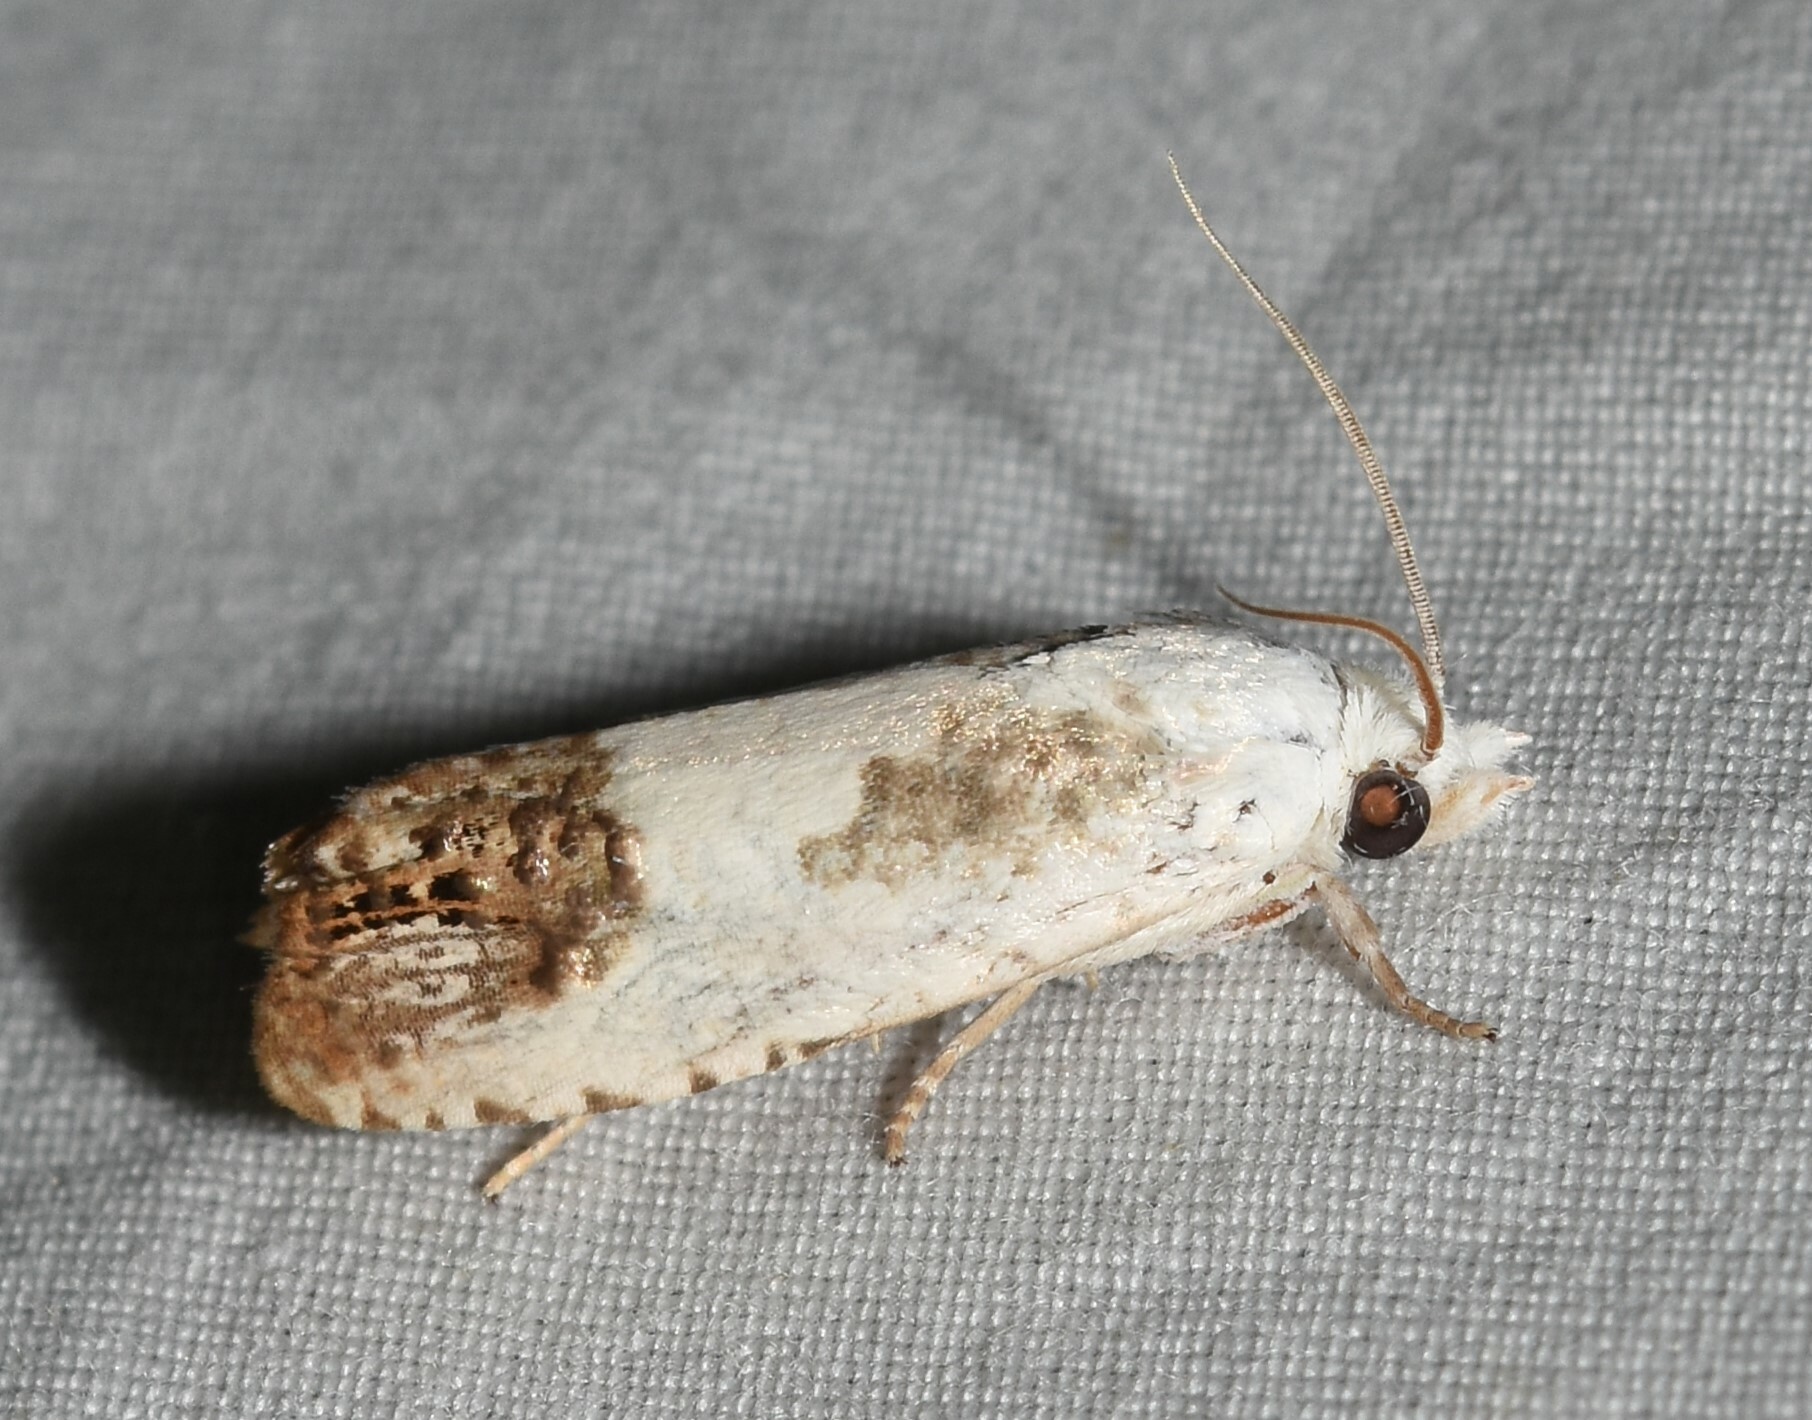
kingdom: Animalia
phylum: Arthropoda
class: Insecta
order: Lepidoptera
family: Tortricidae
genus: Eucosma
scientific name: Eucosma giganteana
